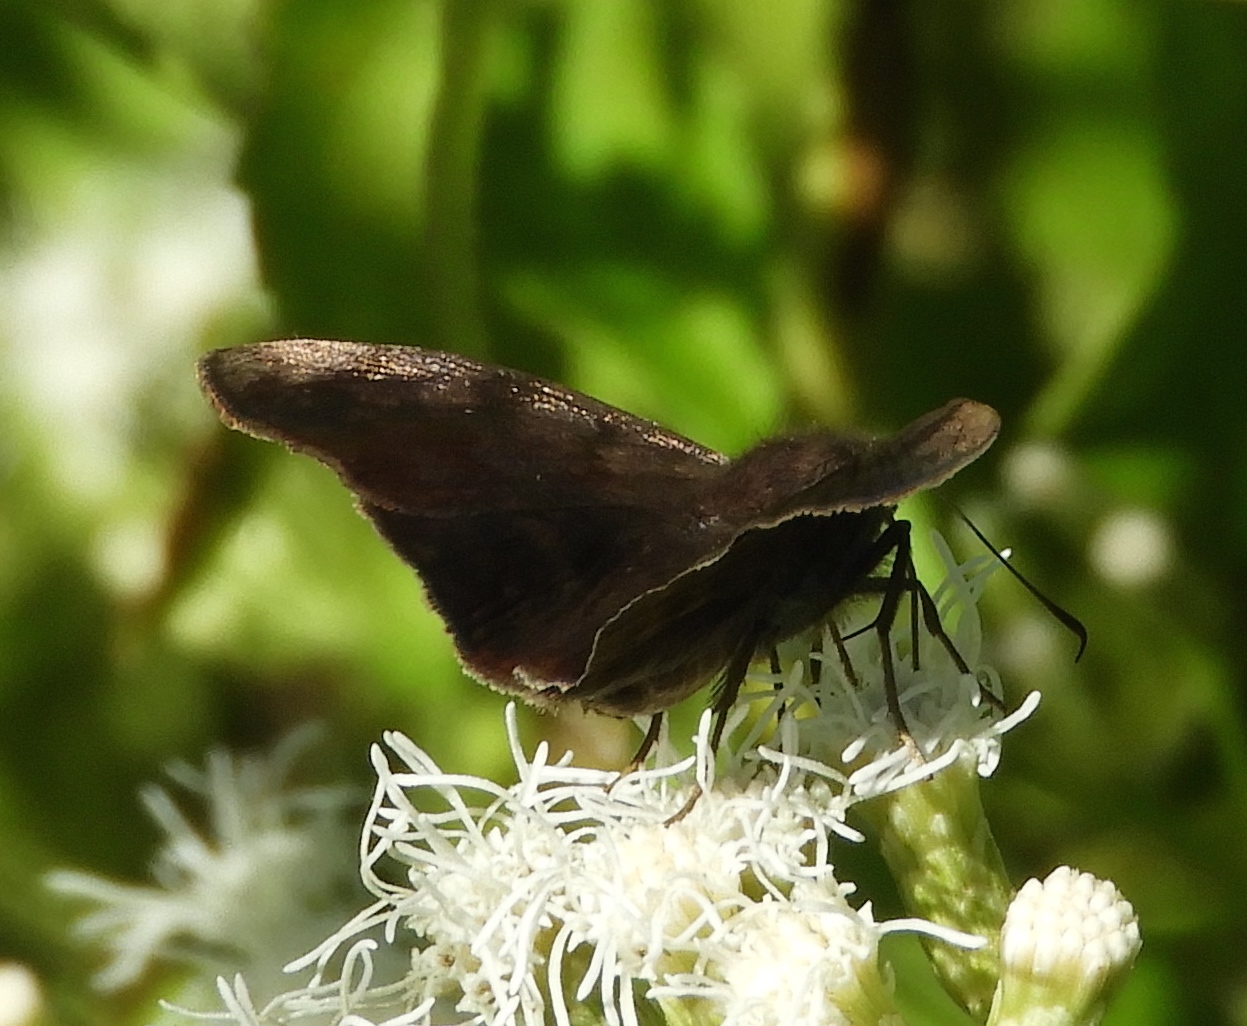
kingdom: Animalia
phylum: Arthropoda
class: Insecta
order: Lepidoptera
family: Hesperiidae
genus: Pellicia
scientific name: Pellicia
